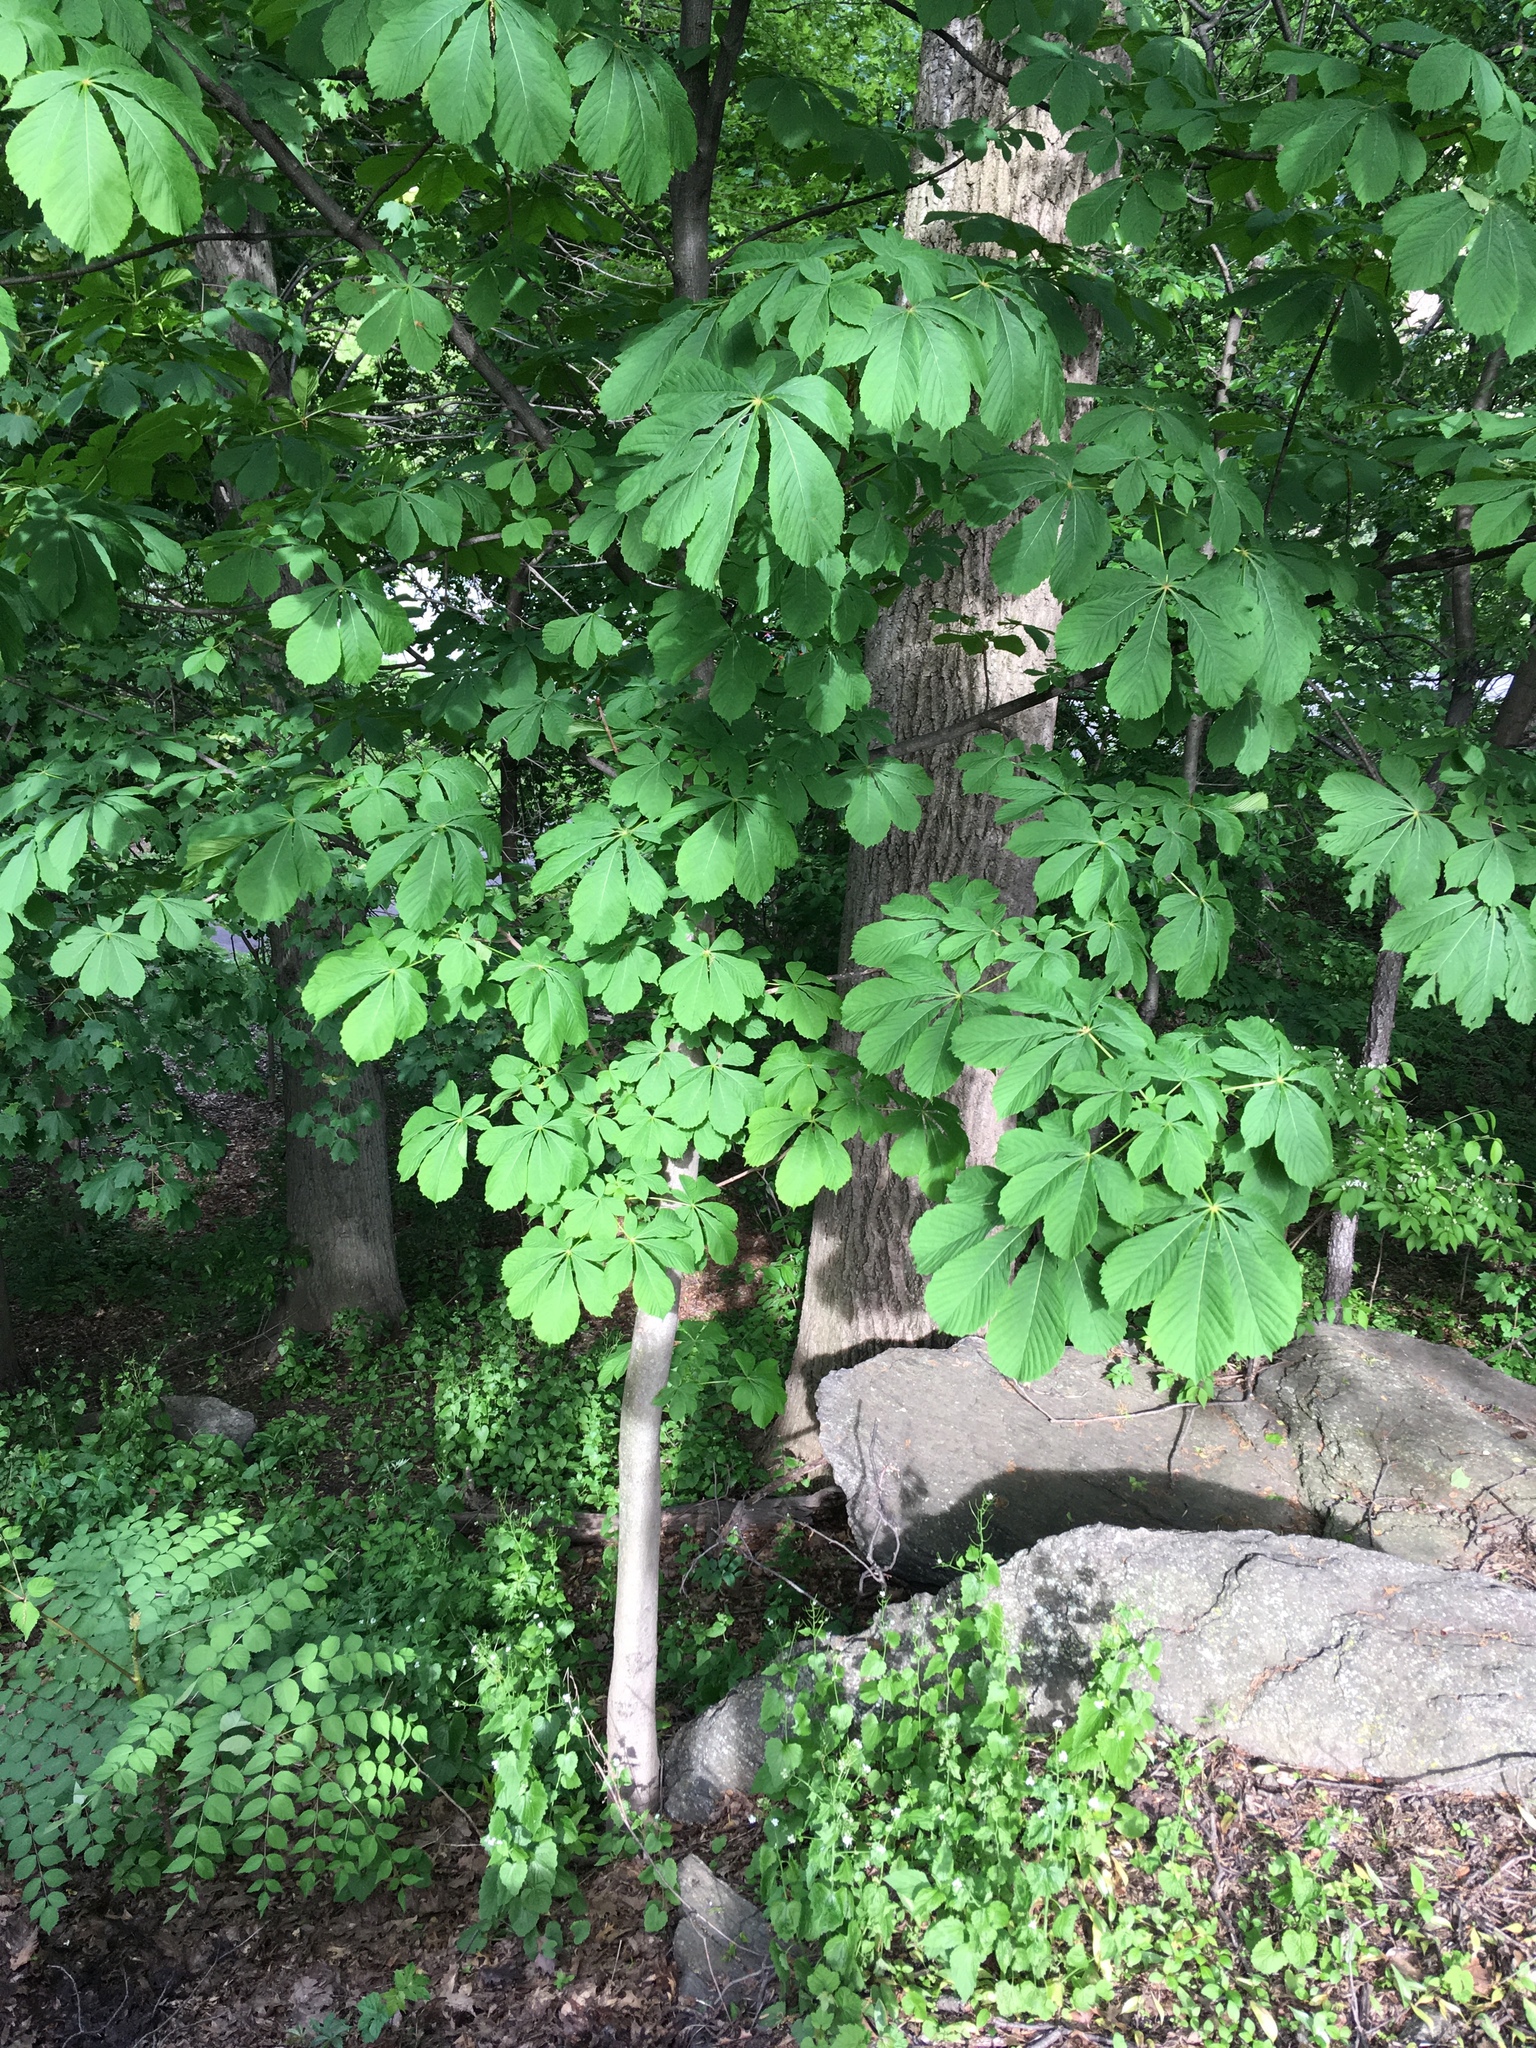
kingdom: Plantae
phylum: Tracheophyta
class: Magnoliopsida
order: Sapindales
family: Sapindaceae
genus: Aesculus
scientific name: Aesculus hippocastanum
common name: Horse-chestnut
